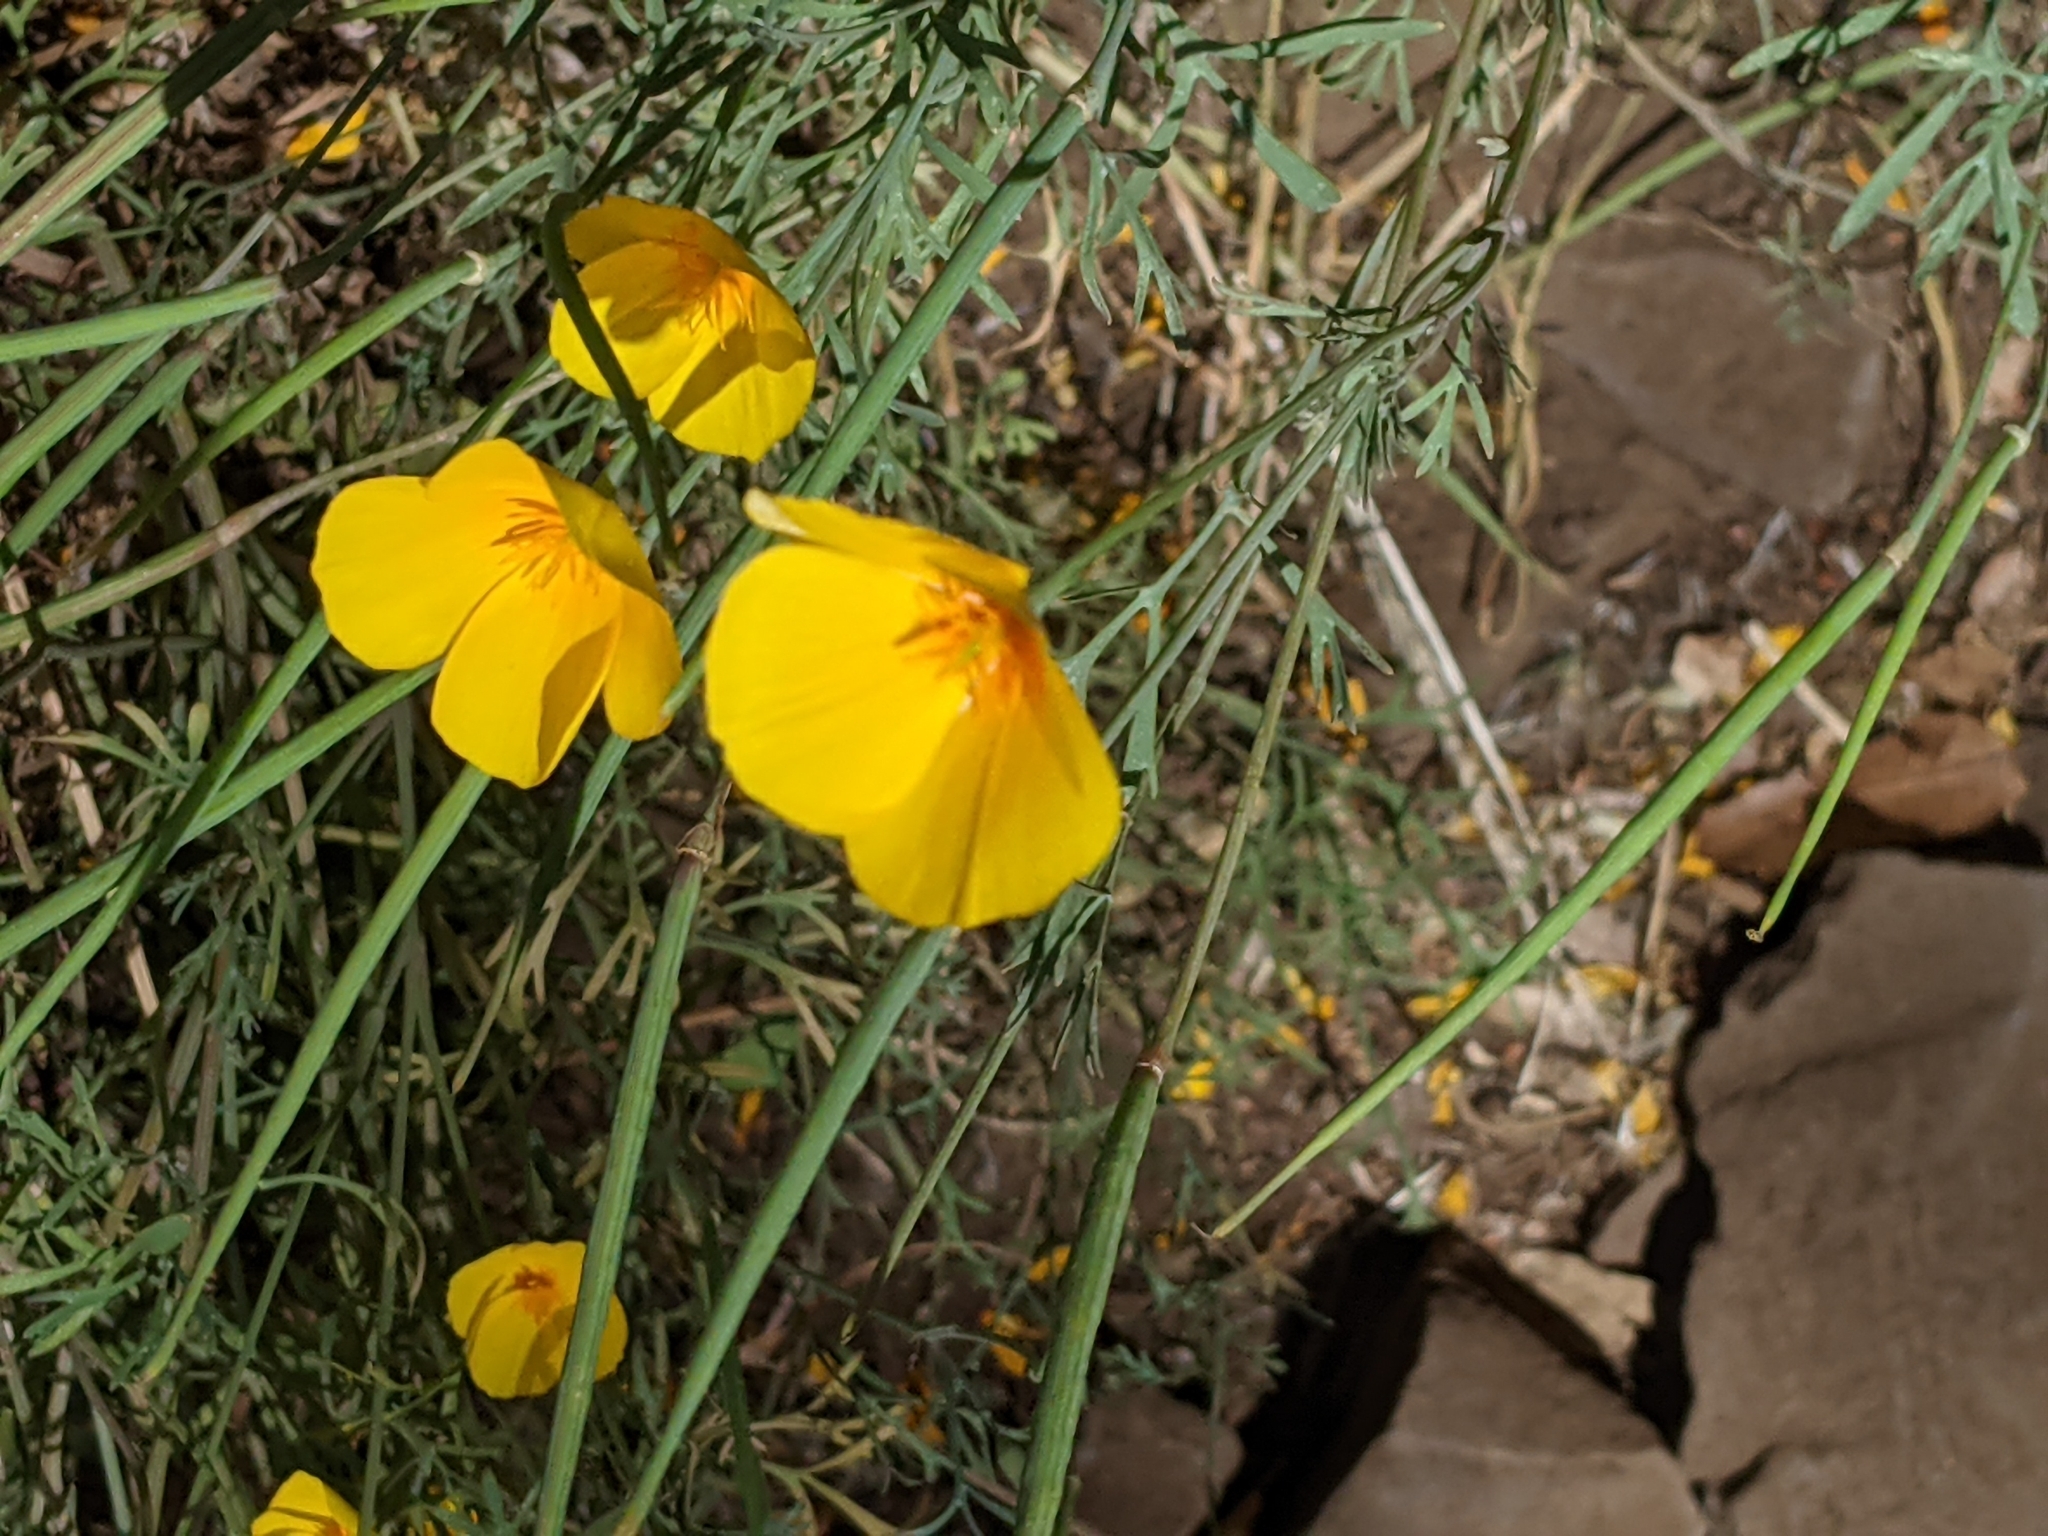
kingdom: Plantae
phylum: Tracheophyta
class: Magnoliopsida
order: Ranunculales
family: Papaveraceae
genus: Eschscholzia
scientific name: Eschscholzia caespitosa
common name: Tufted california-poppy
